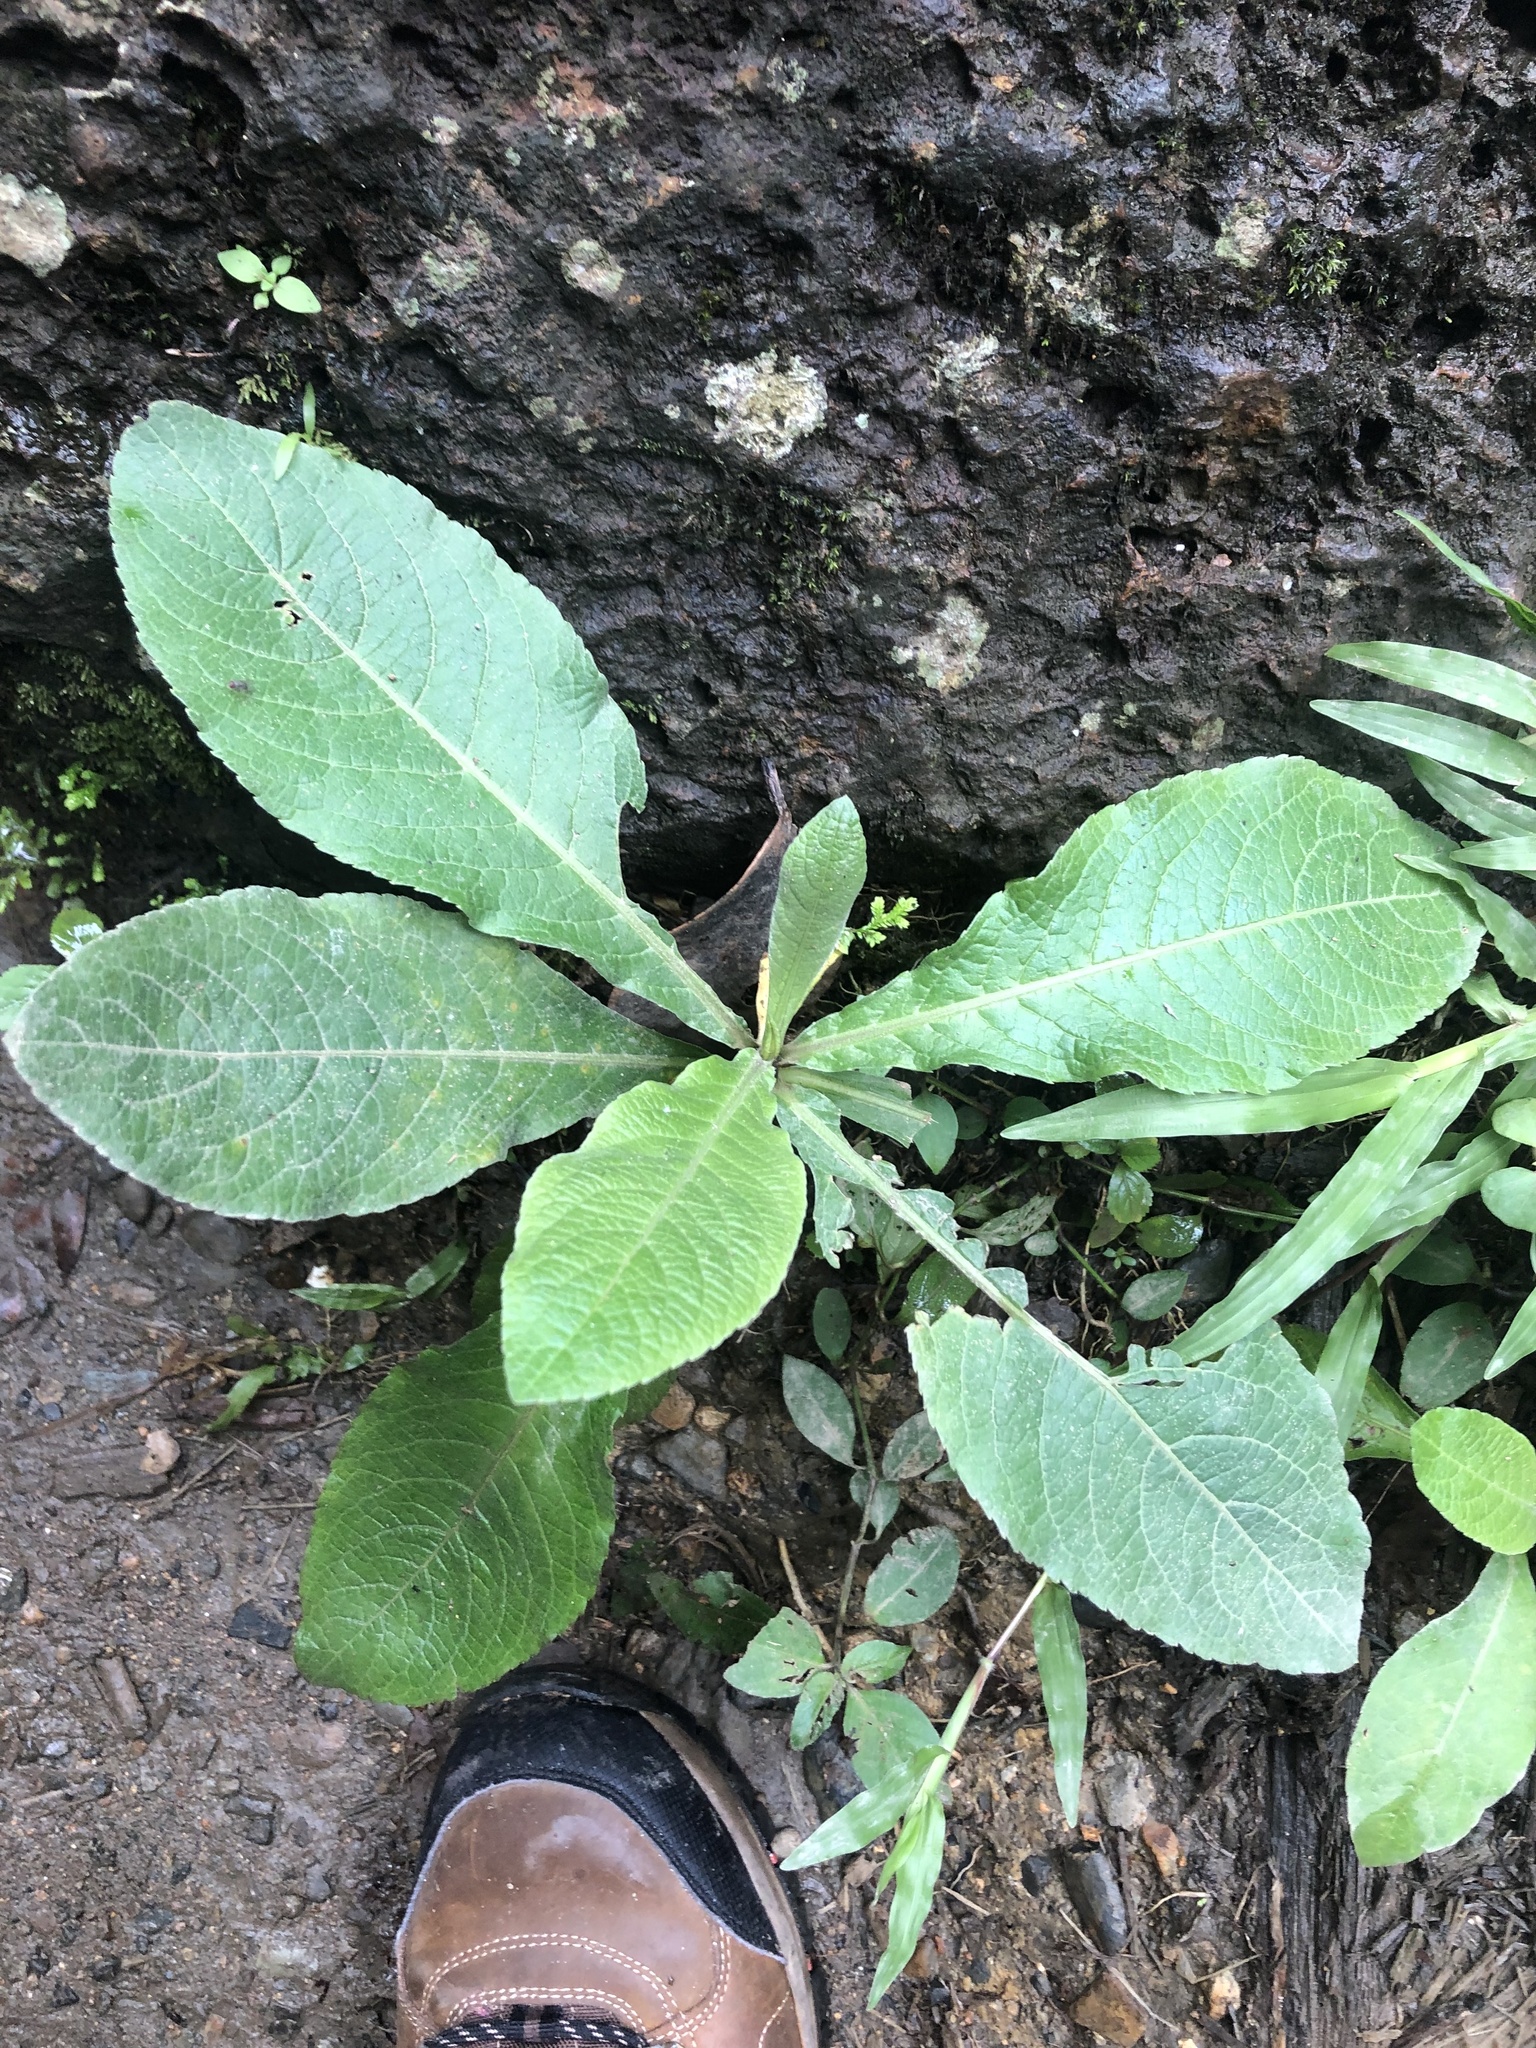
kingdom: Plantae
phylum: Tracheophyta
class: Magnoliopsida
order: Asterales
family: Asteraceae
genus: Elephantopus
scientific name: Elephantopus mollis
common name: Soft elephantsfoot
